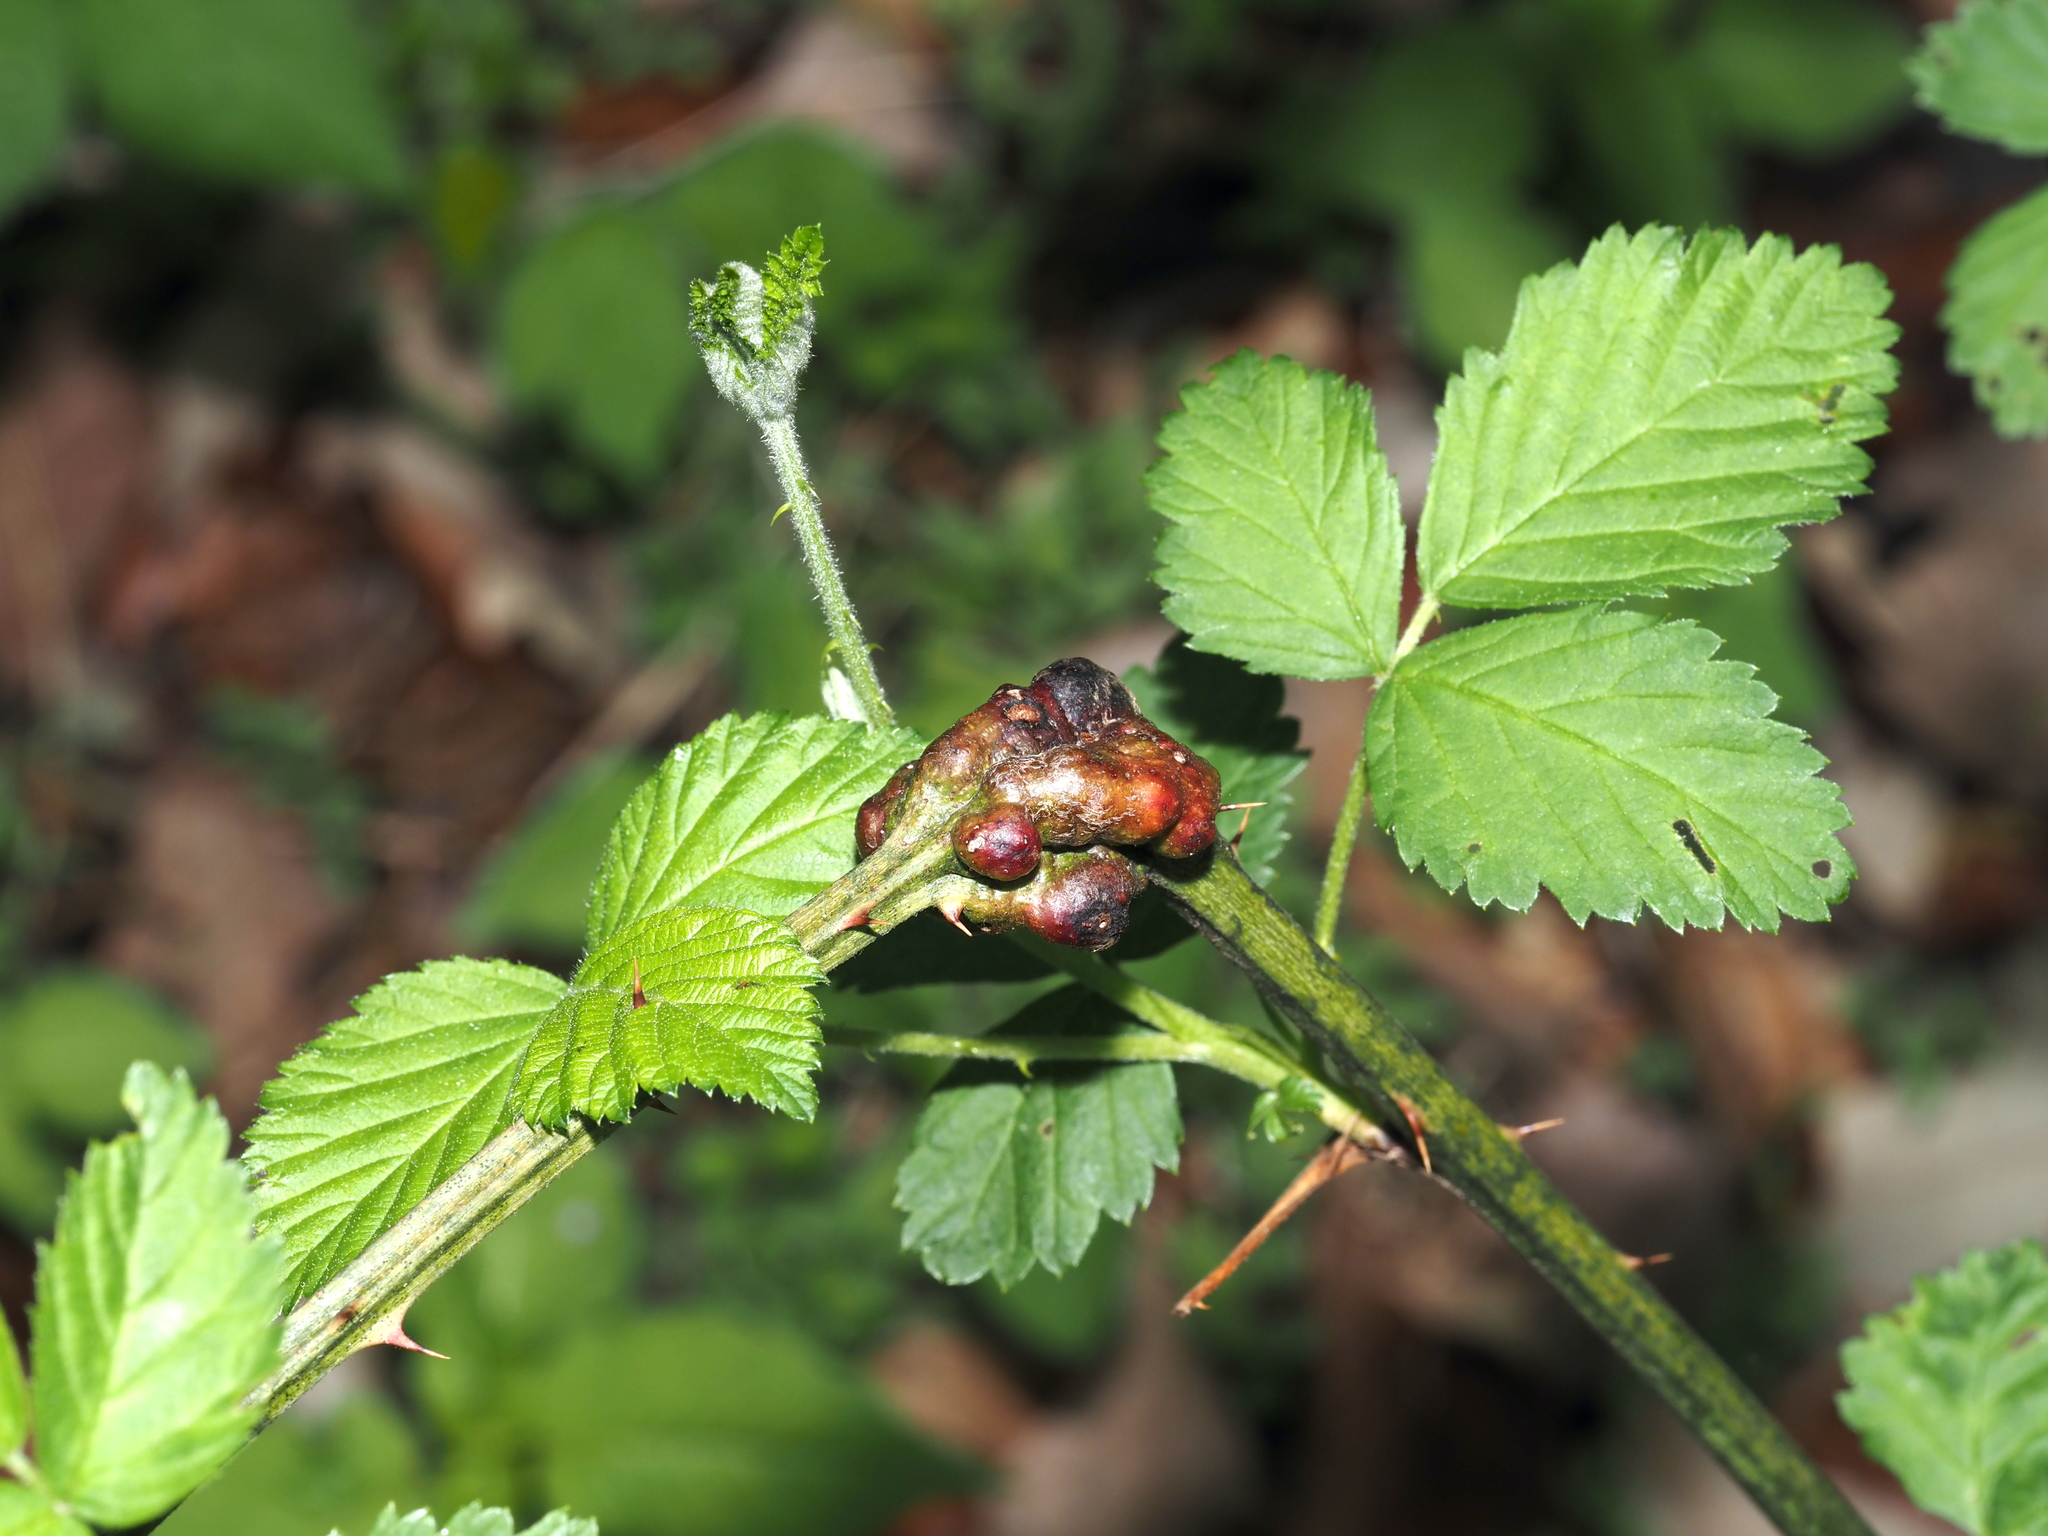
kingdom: Animalia
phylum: Arthropoda
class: Insecta
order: Hymenoptera
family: Cynipidae
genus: Diastrophus
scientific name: Diastrophus
